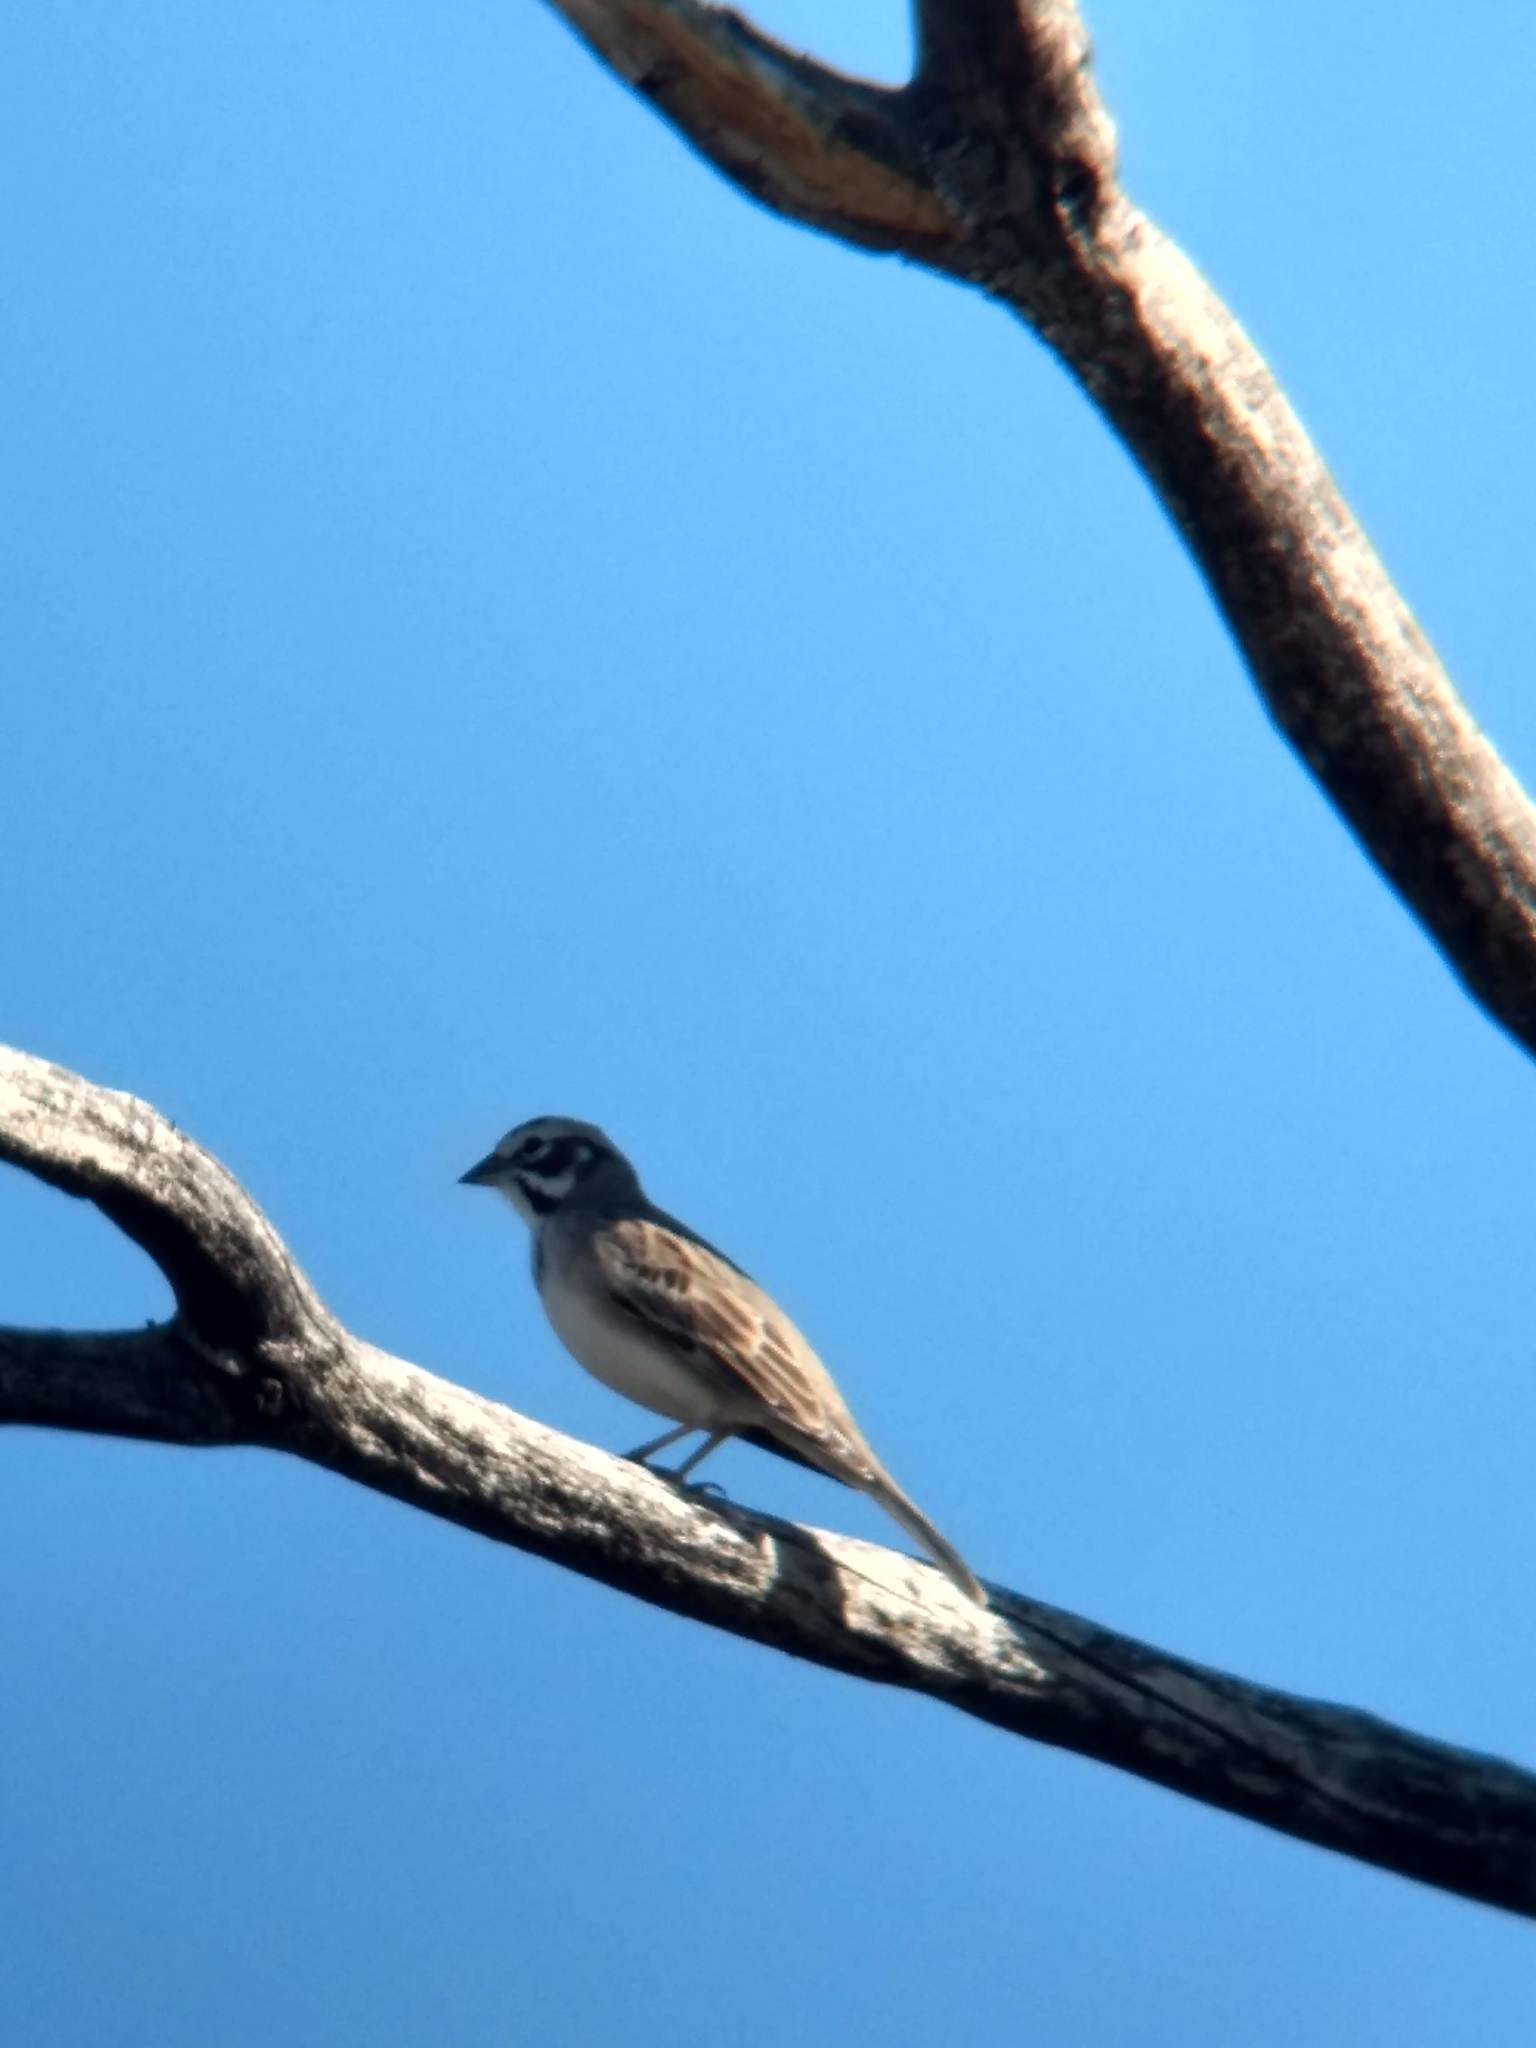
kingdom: Animalia
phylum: Chordata
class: Aves
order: Passeriformes
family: Passerellidae
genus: Chondestes
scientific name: Chondestes grammacus
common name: Lark sparrow
